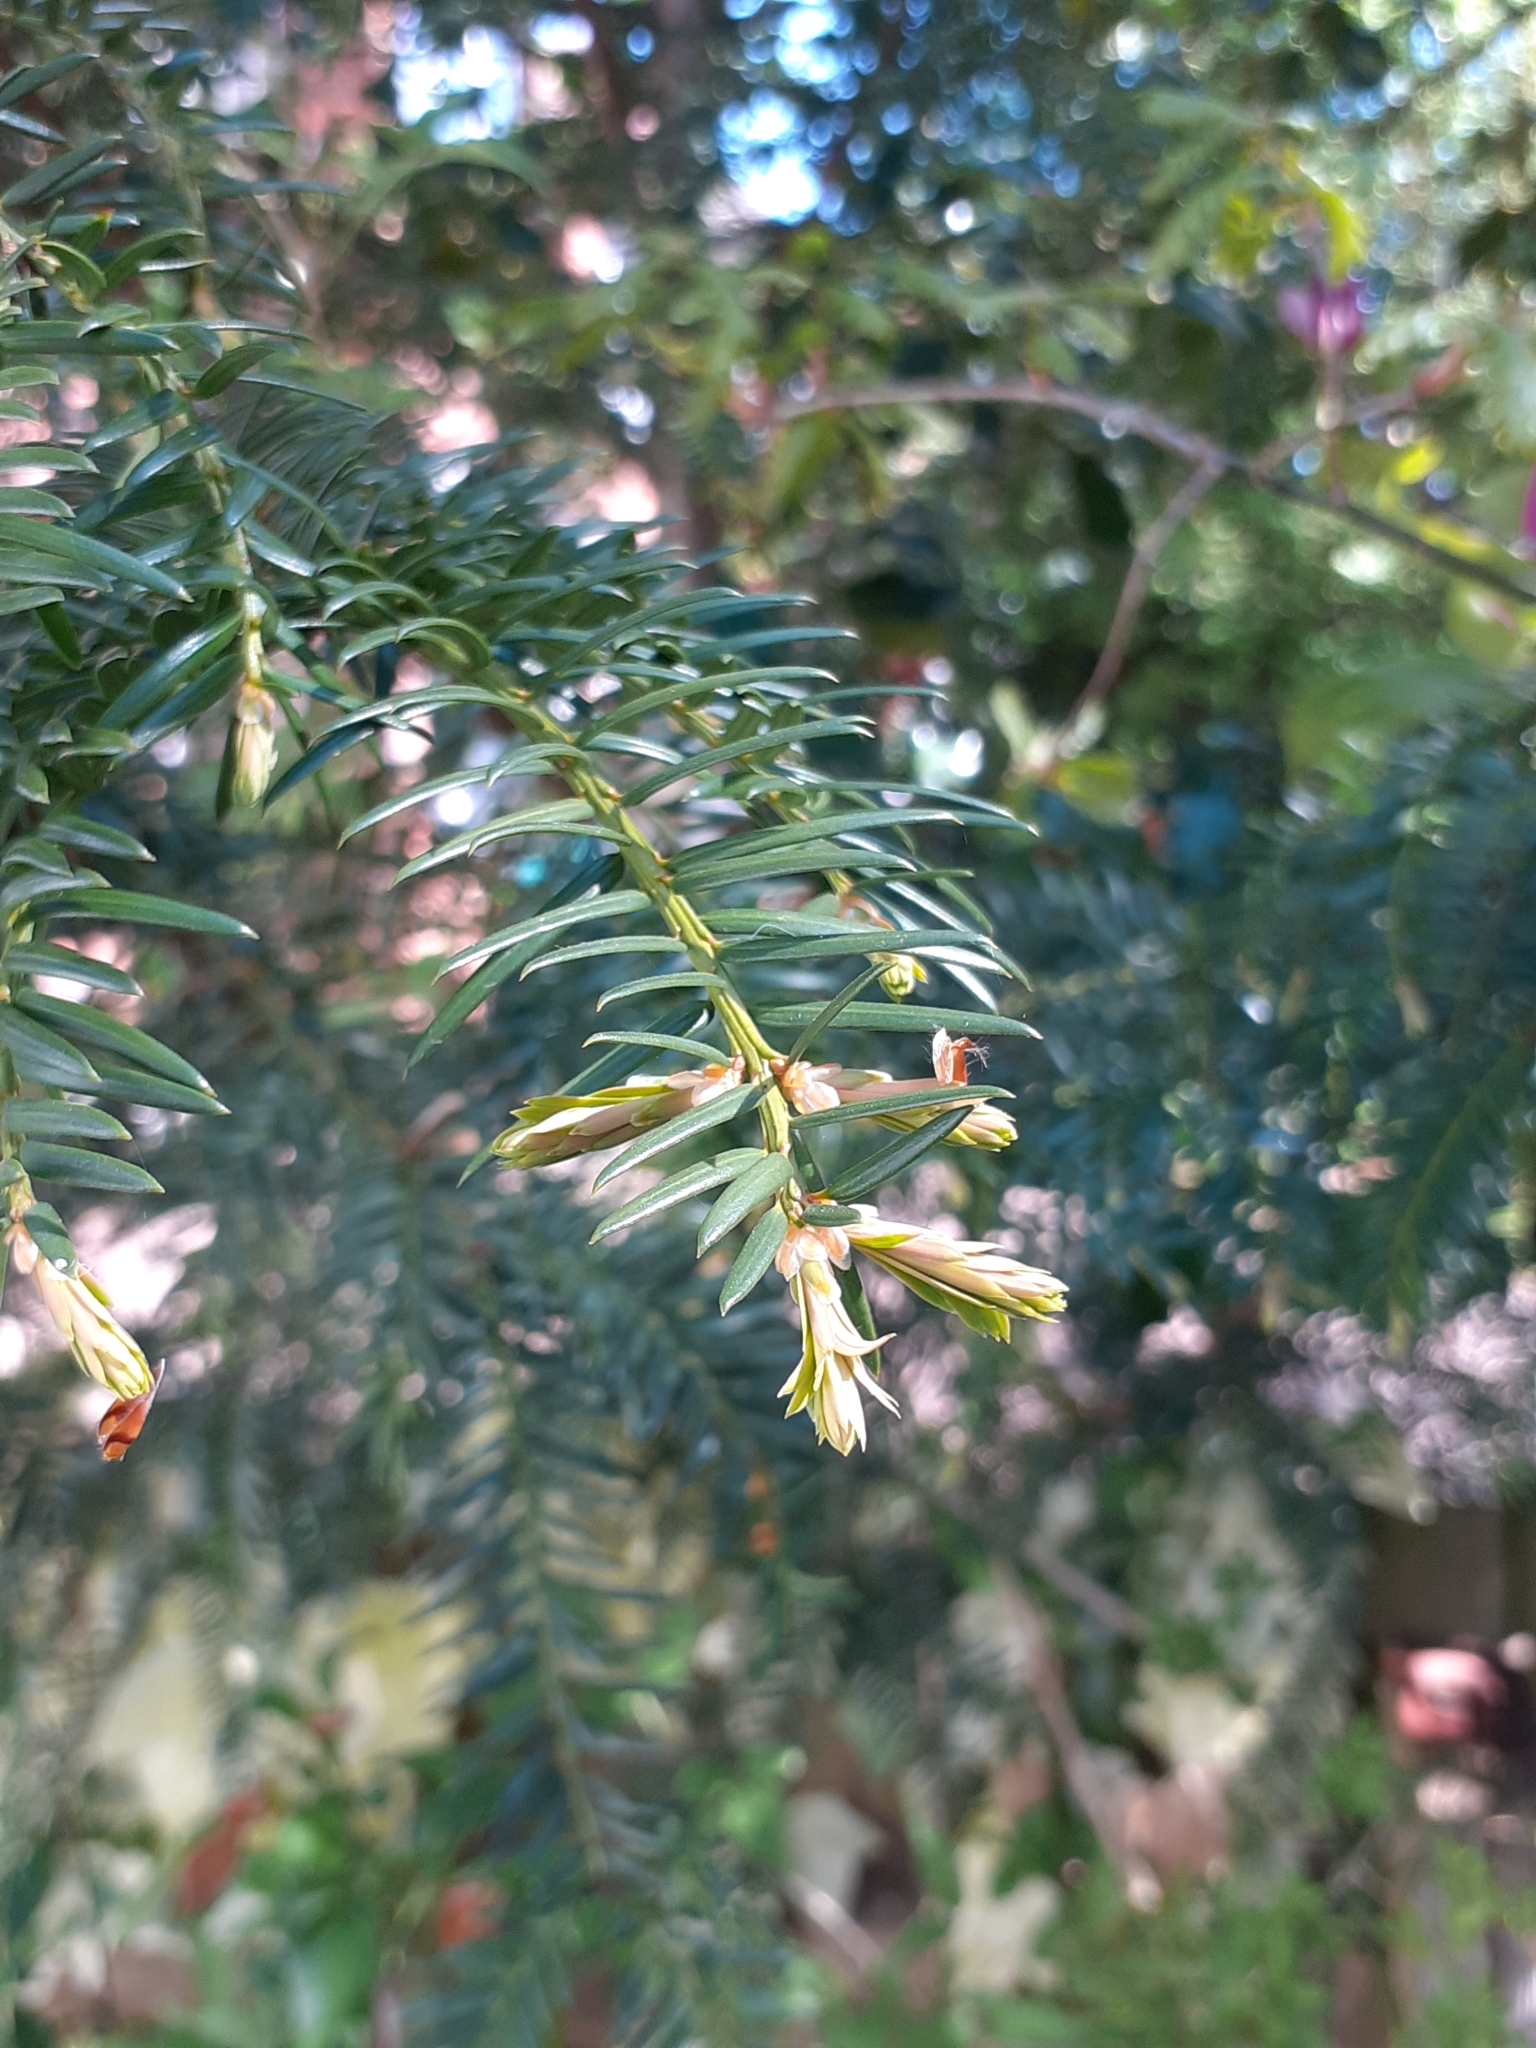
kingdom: Plantae
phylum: Tracheophyta
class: Pinopsida
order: Pinales
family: Taxaceae
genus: Taxus
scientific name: Taxus baccata
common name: Yew
